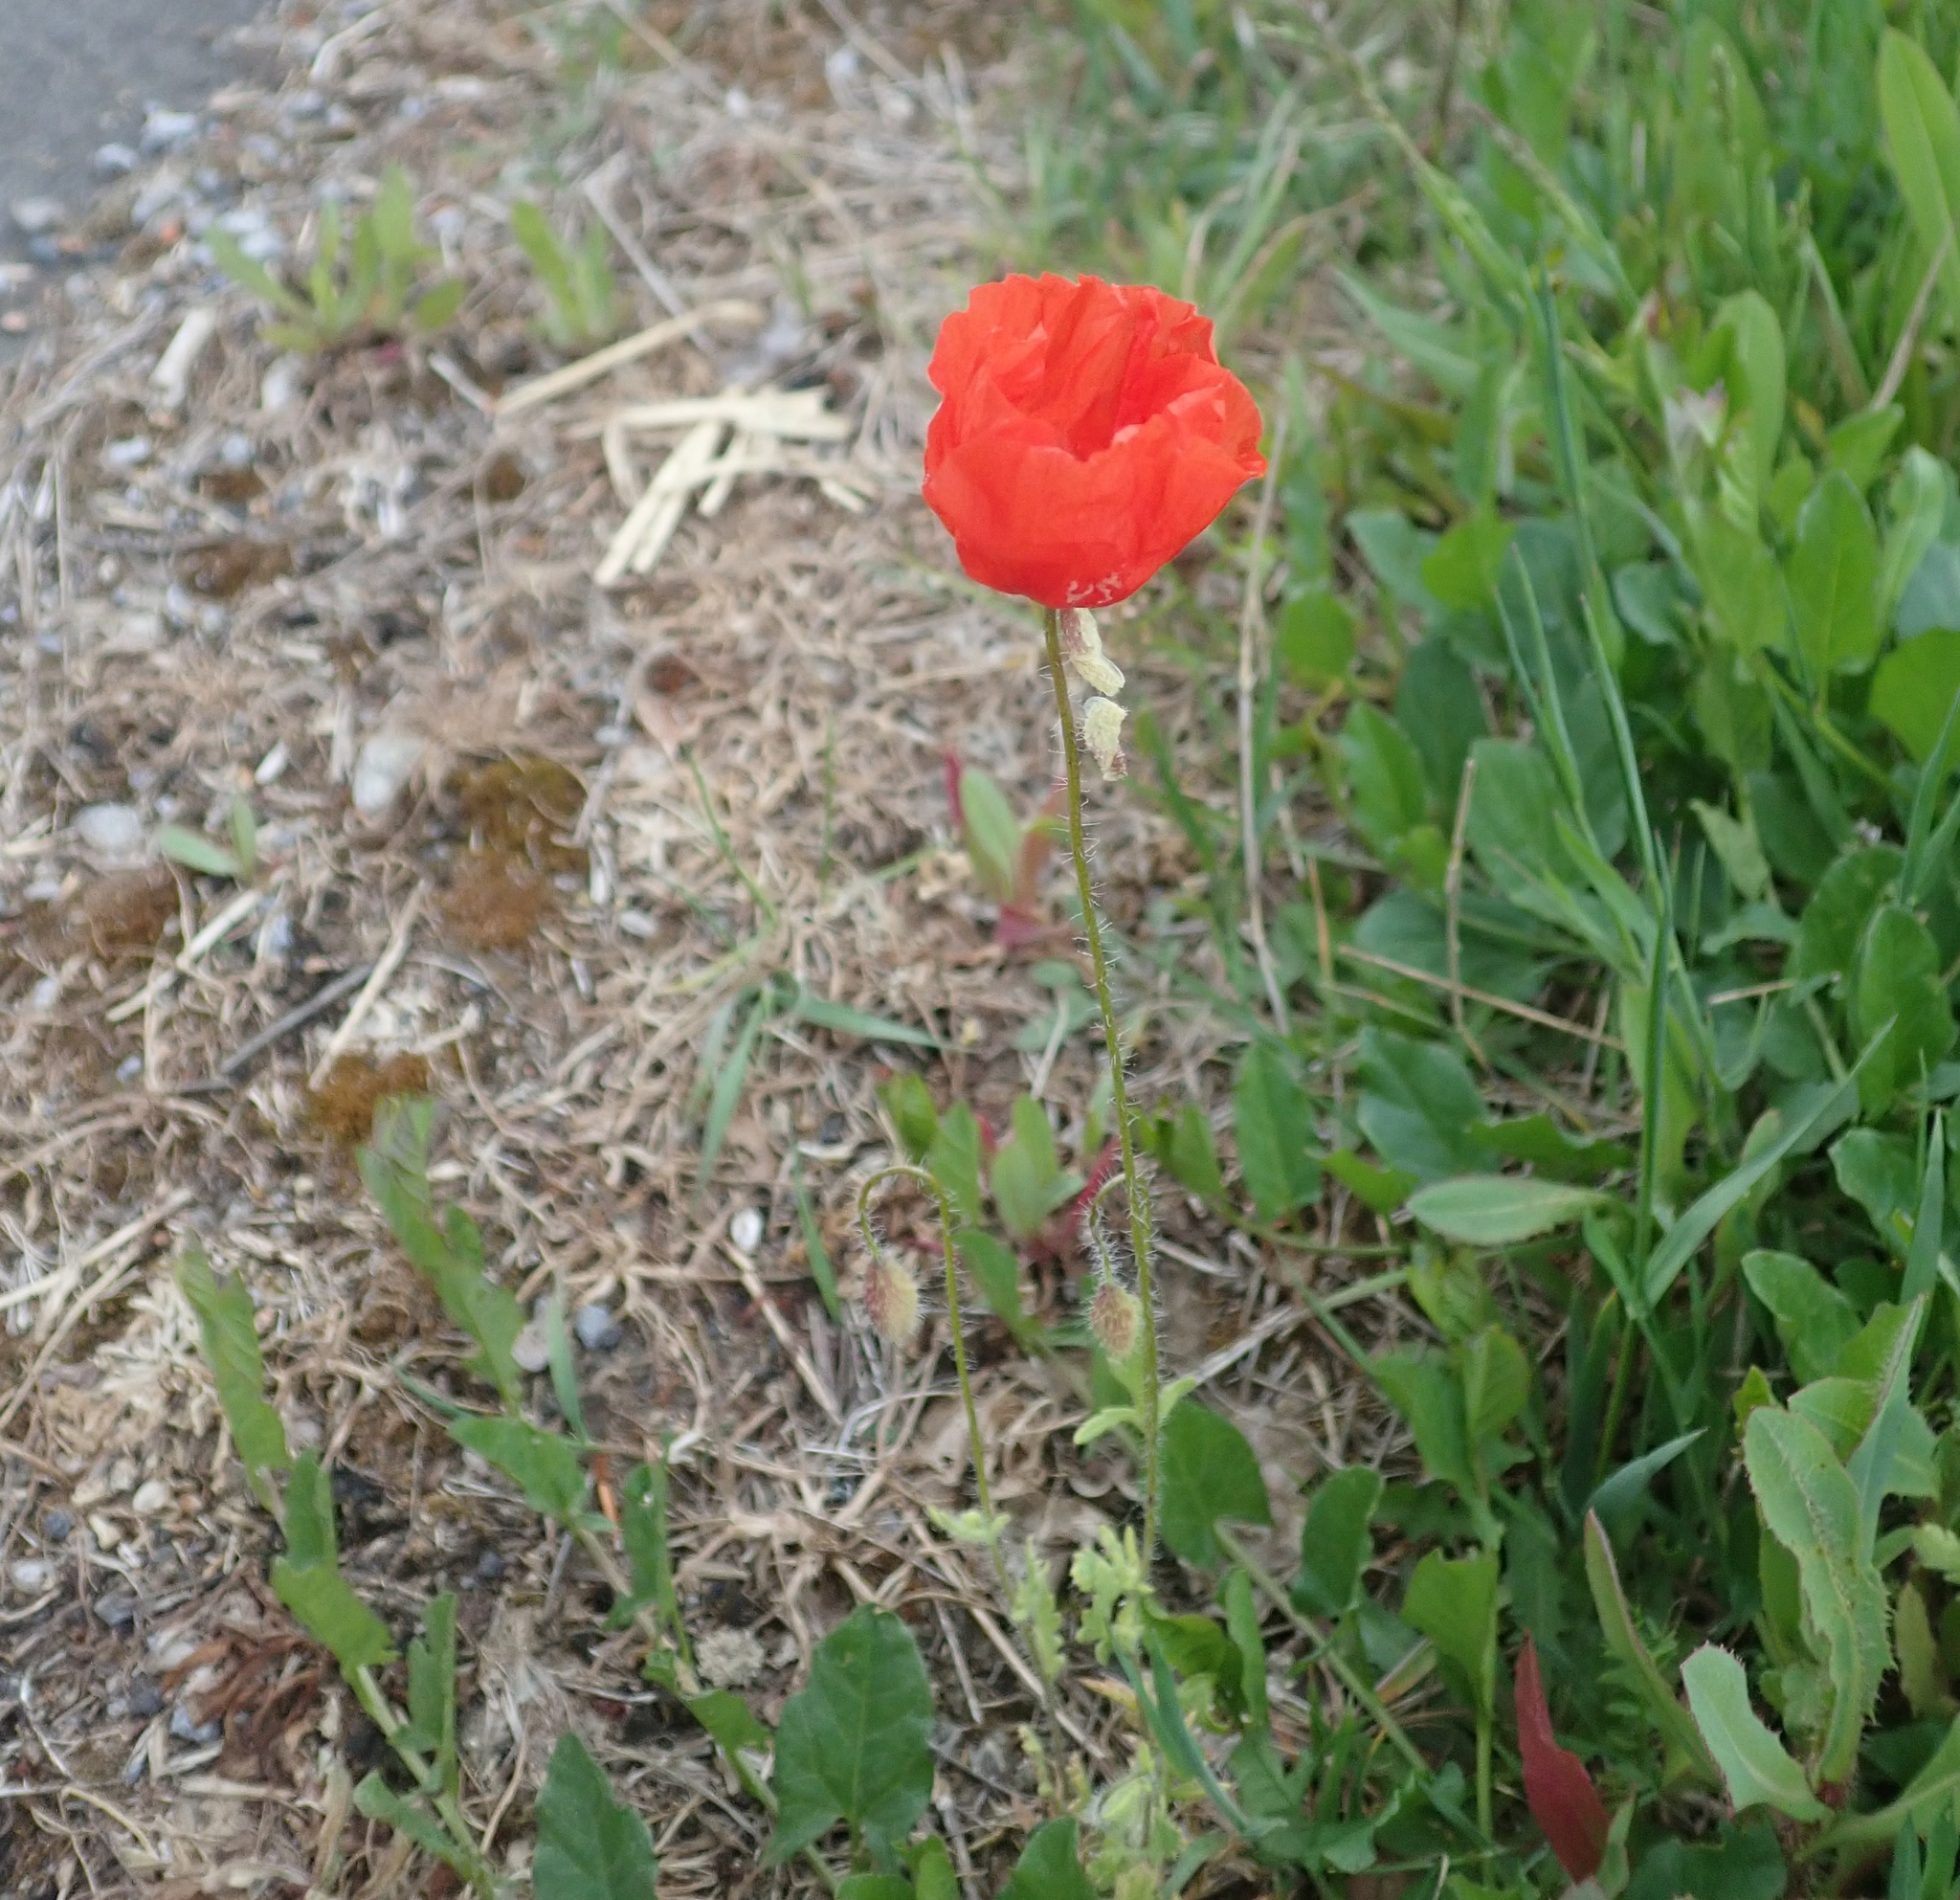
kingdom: Plantae
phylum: Tracheophyta
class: Magnoliopsida
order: Ranunculales
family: Papaveraceae
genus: Papaver
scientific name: Papaver rhoeas
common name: Corn poppy
